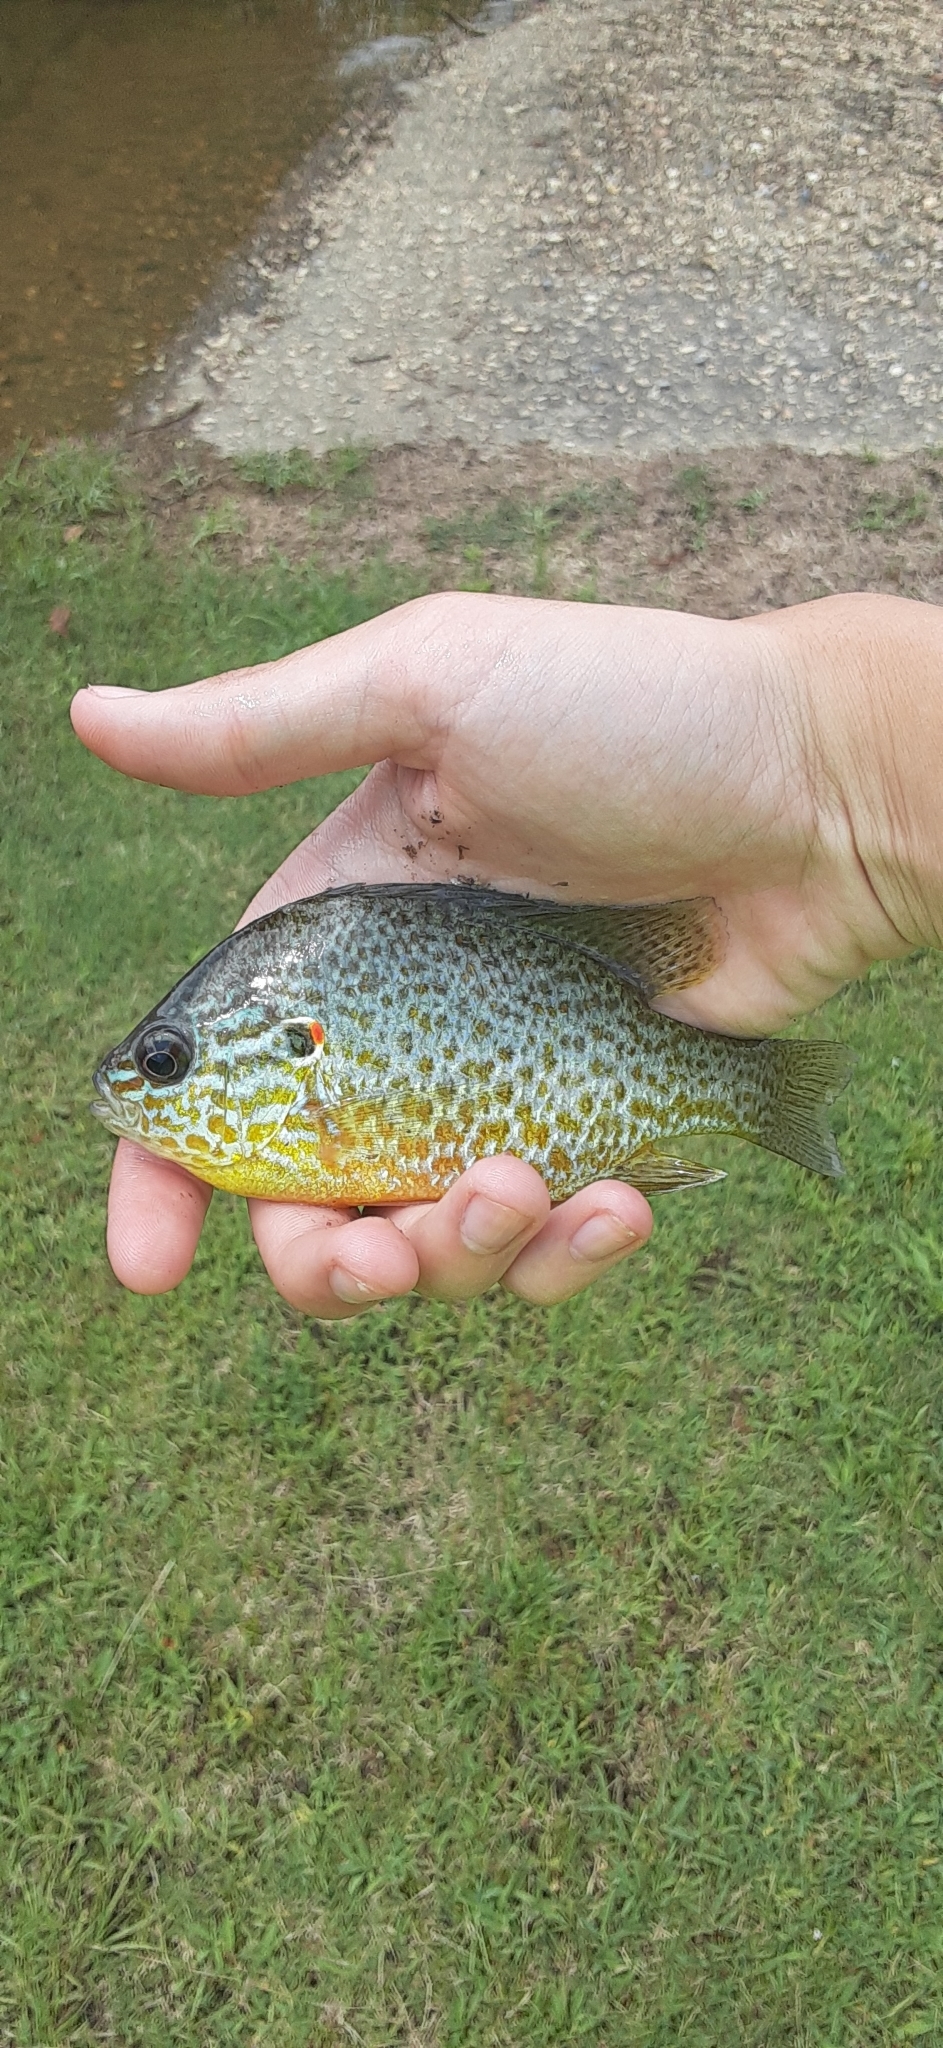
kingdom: Animalia
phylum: Chordata
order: Perciformes
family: Centrarchidae
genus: Lepomis
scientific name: Lepomis gibbosus
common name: Pumpkinseed
